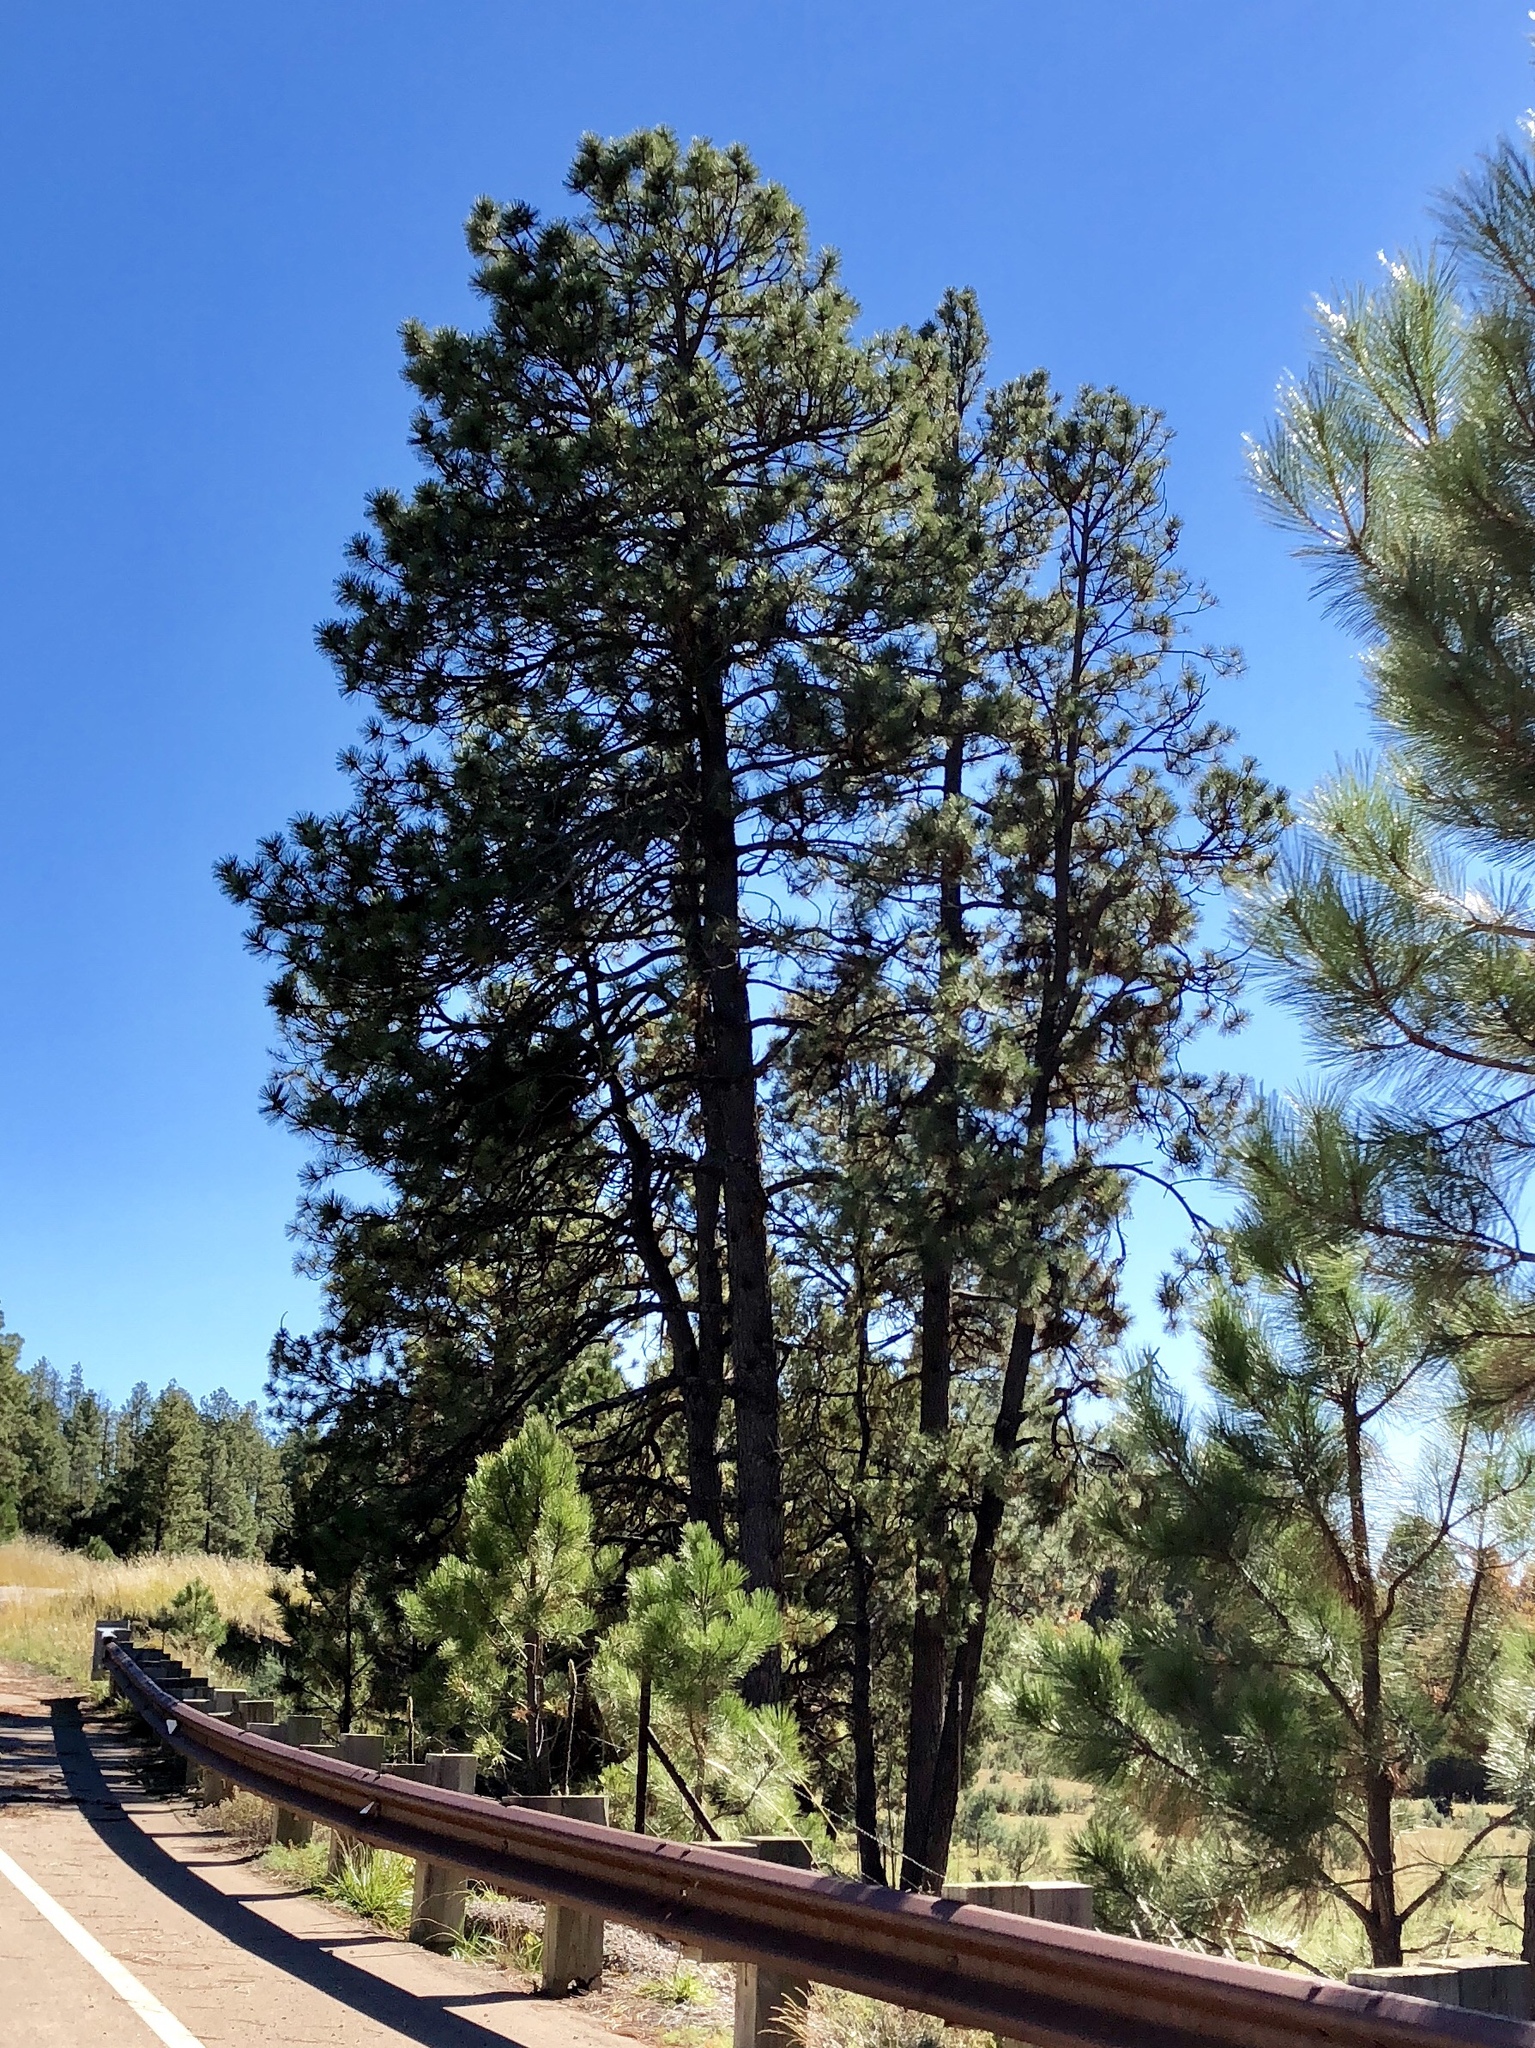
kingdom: Plantae
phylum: Tracheophyta
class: Pinopsida
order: Pinales
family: Pinaceae
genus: Pinus
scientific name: Pinus ponderosa
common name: Western yellow-pine
